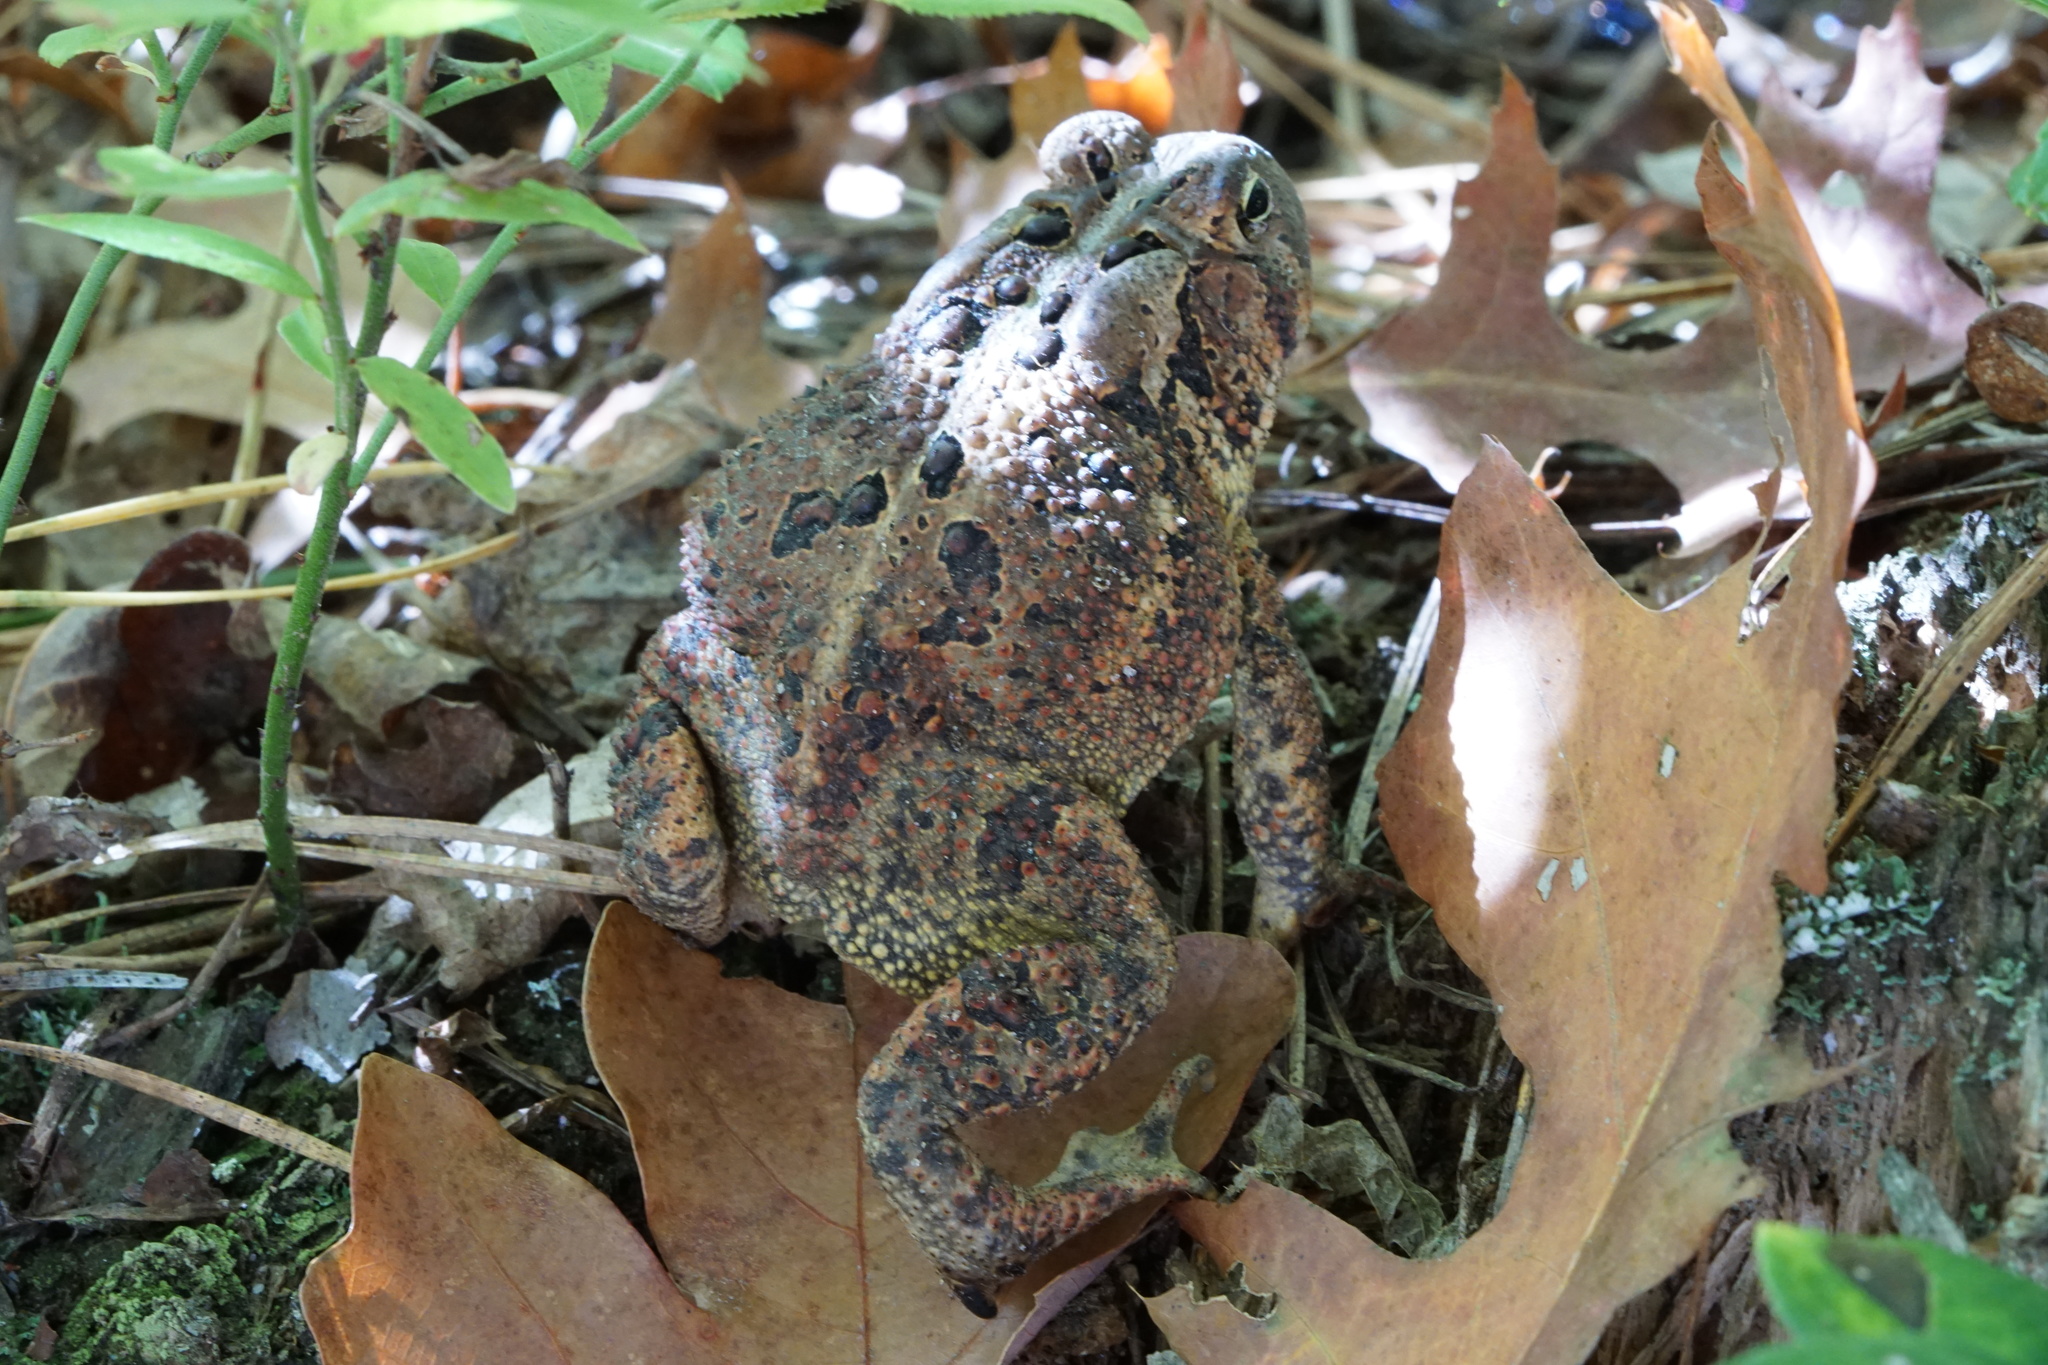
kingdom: Animalia
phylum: Chordata
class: Amphibia
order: Anura
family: Bufonidae
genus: Anaxyrus
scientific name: Anaxyrus americanus
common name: American toad
